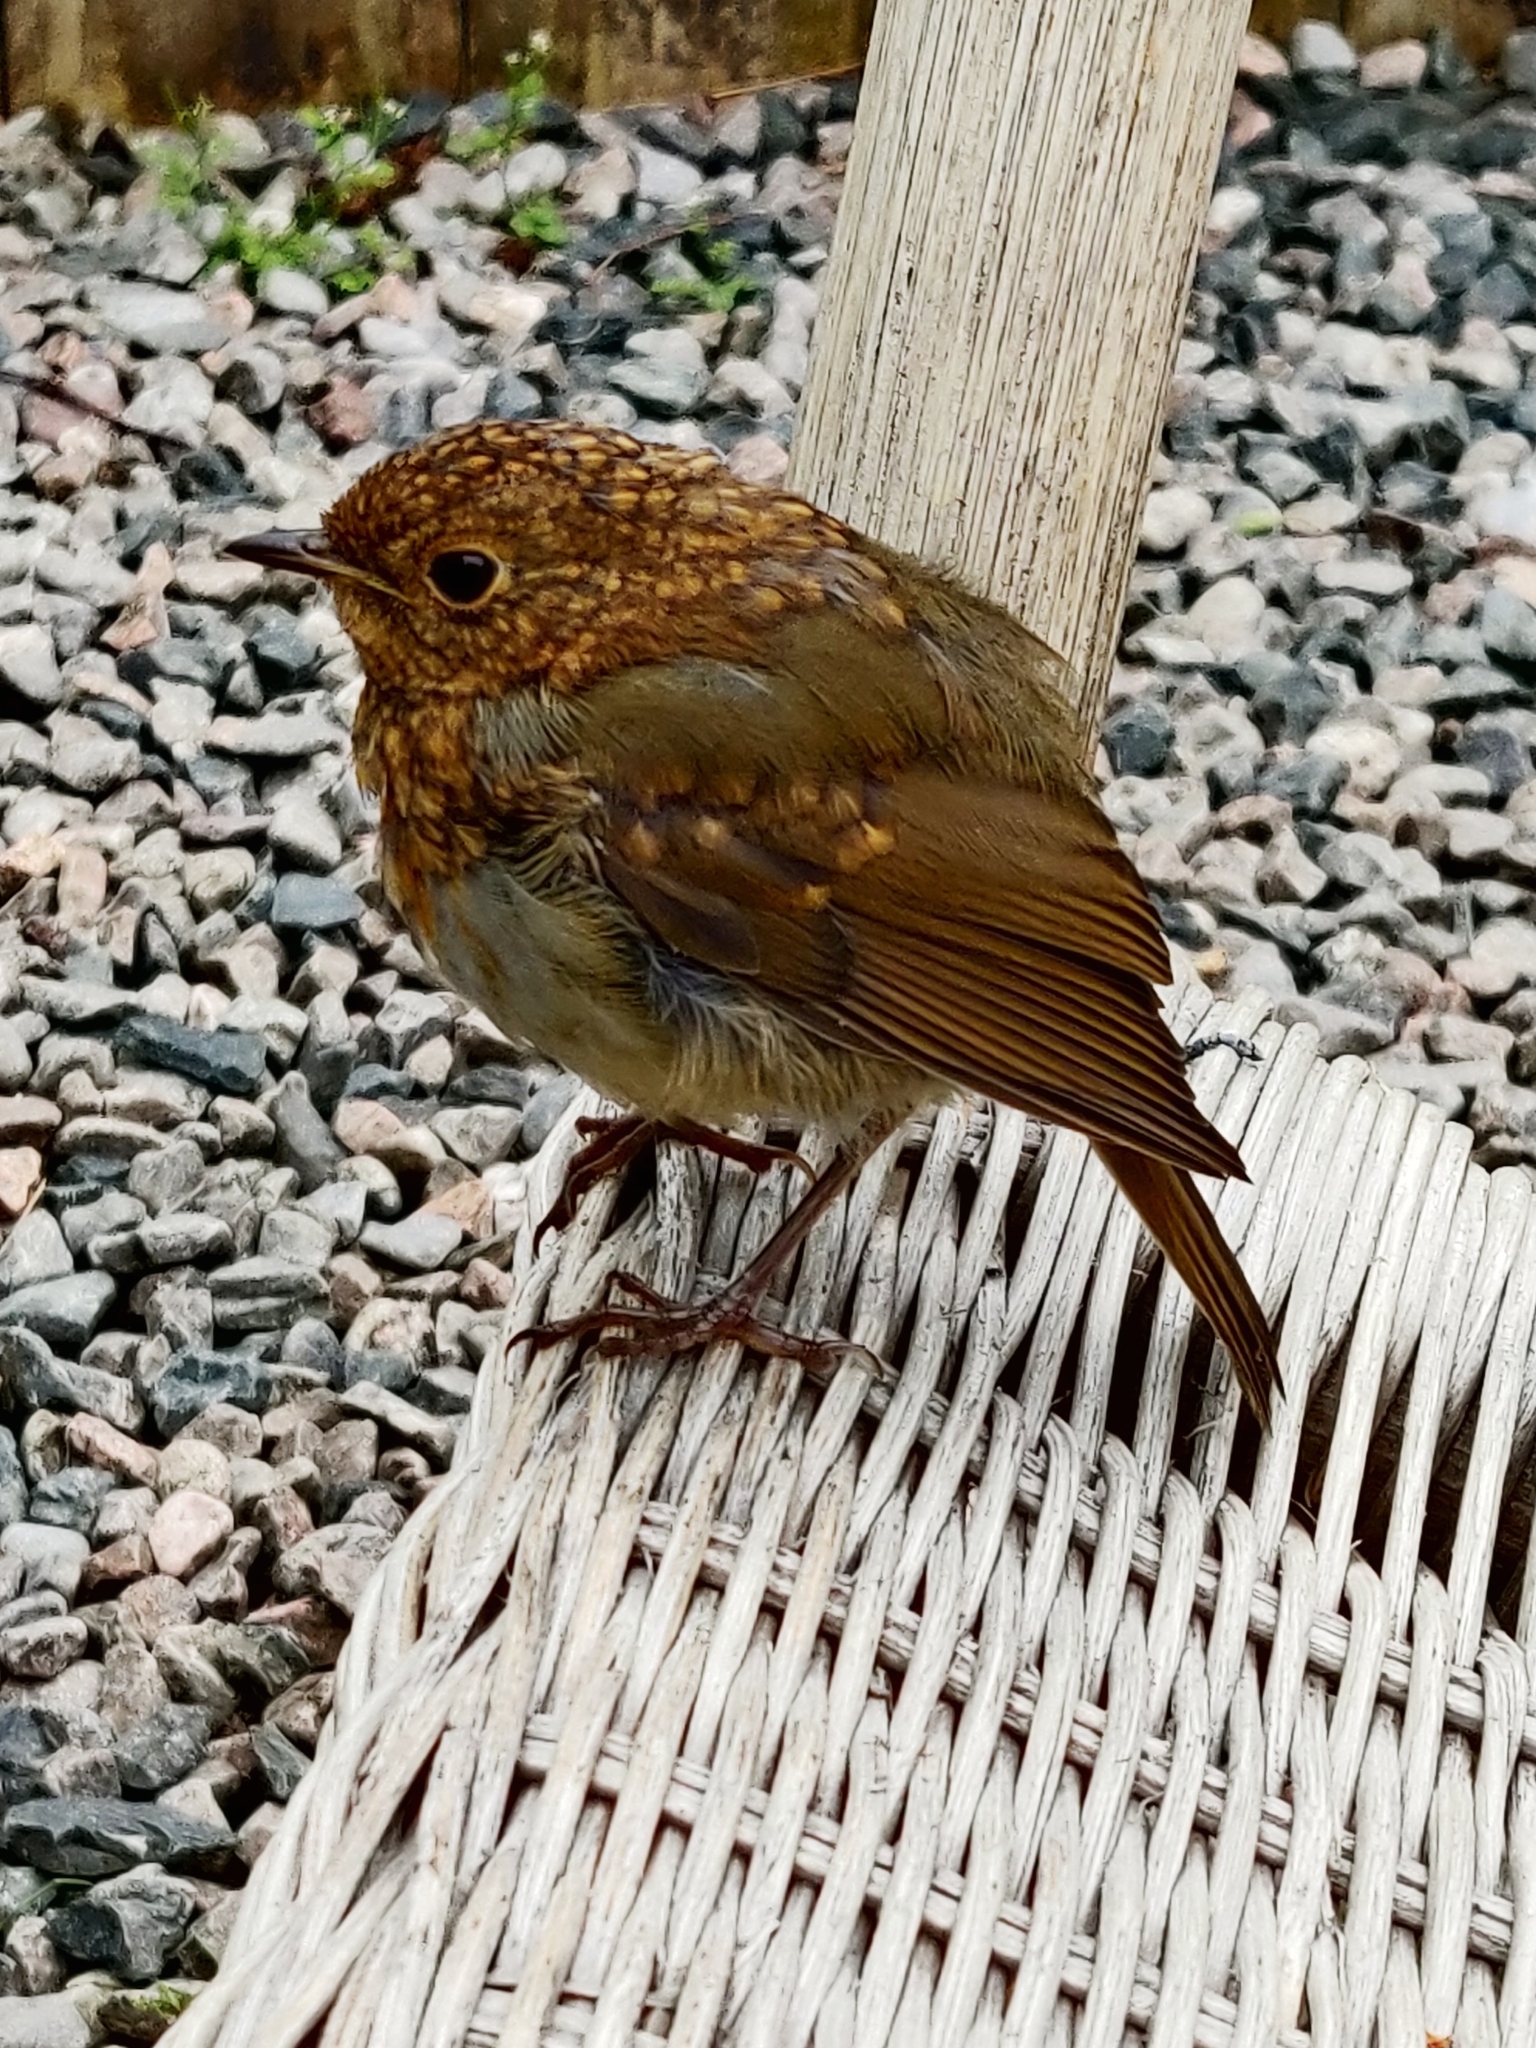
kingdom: Animalia
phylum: Chordata
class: Aves
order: Passeriformes
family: Muscicapidae
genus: Erithacus
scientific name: Erithacus rubecula
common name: European robin
